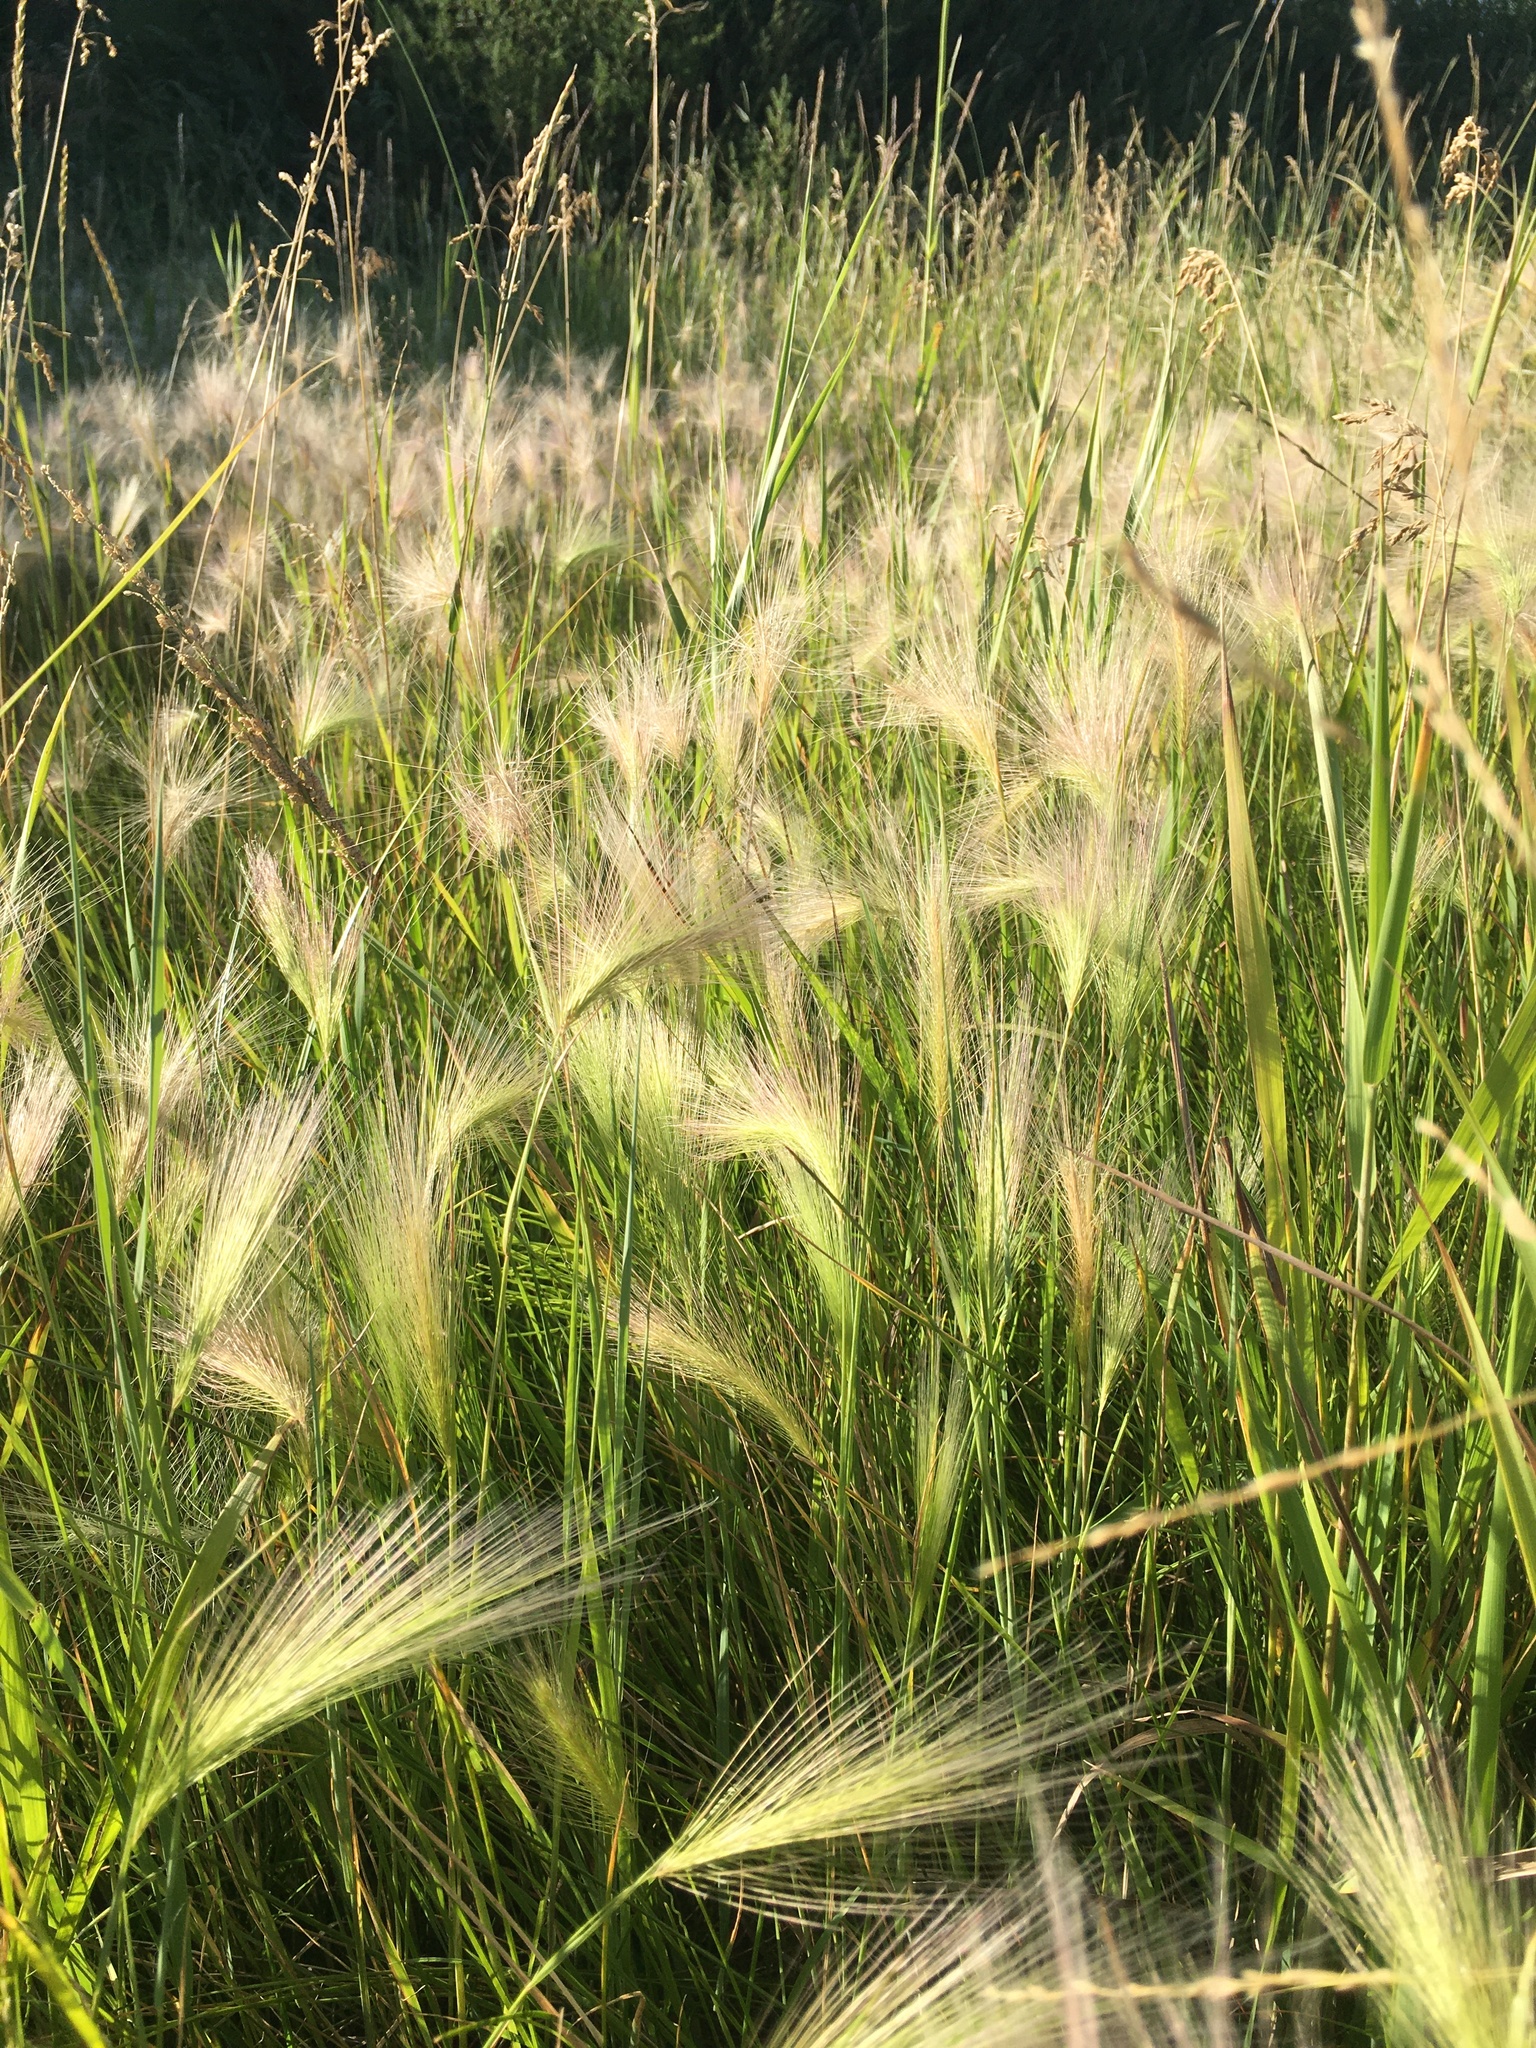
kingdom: Plantae
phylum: Tracheophyta
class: Liliopsida
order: Poales
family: Poaceae
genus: Hordeum
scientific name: Hordeum jubatum
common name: Foxtail barley
